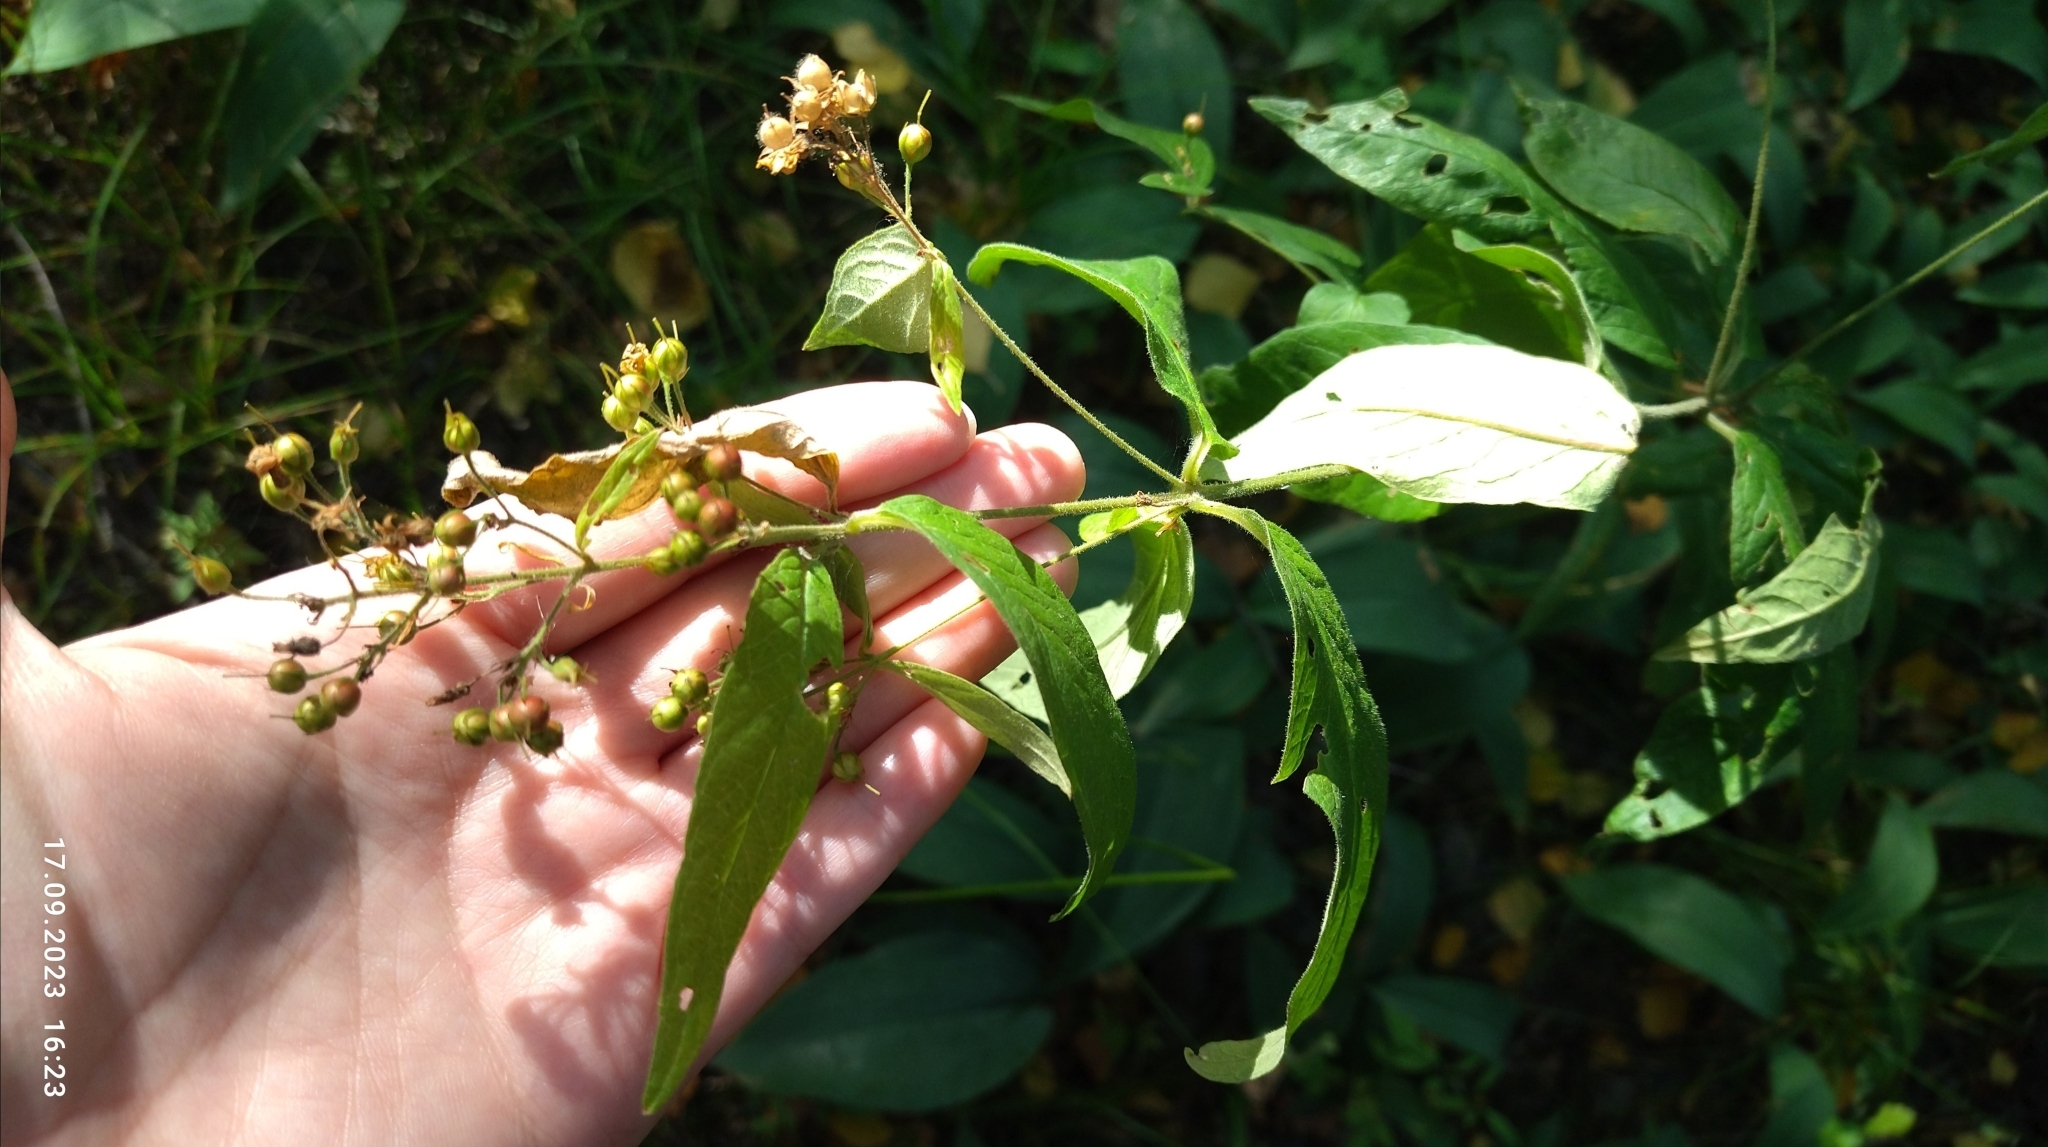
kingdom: Plantae
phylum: Tracheophyta
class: Magnoliopsida
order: Ericales
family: Primulaceae
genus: Lysimachia
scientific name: Lysimachia vulgaris
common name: Yellow loosestrife
